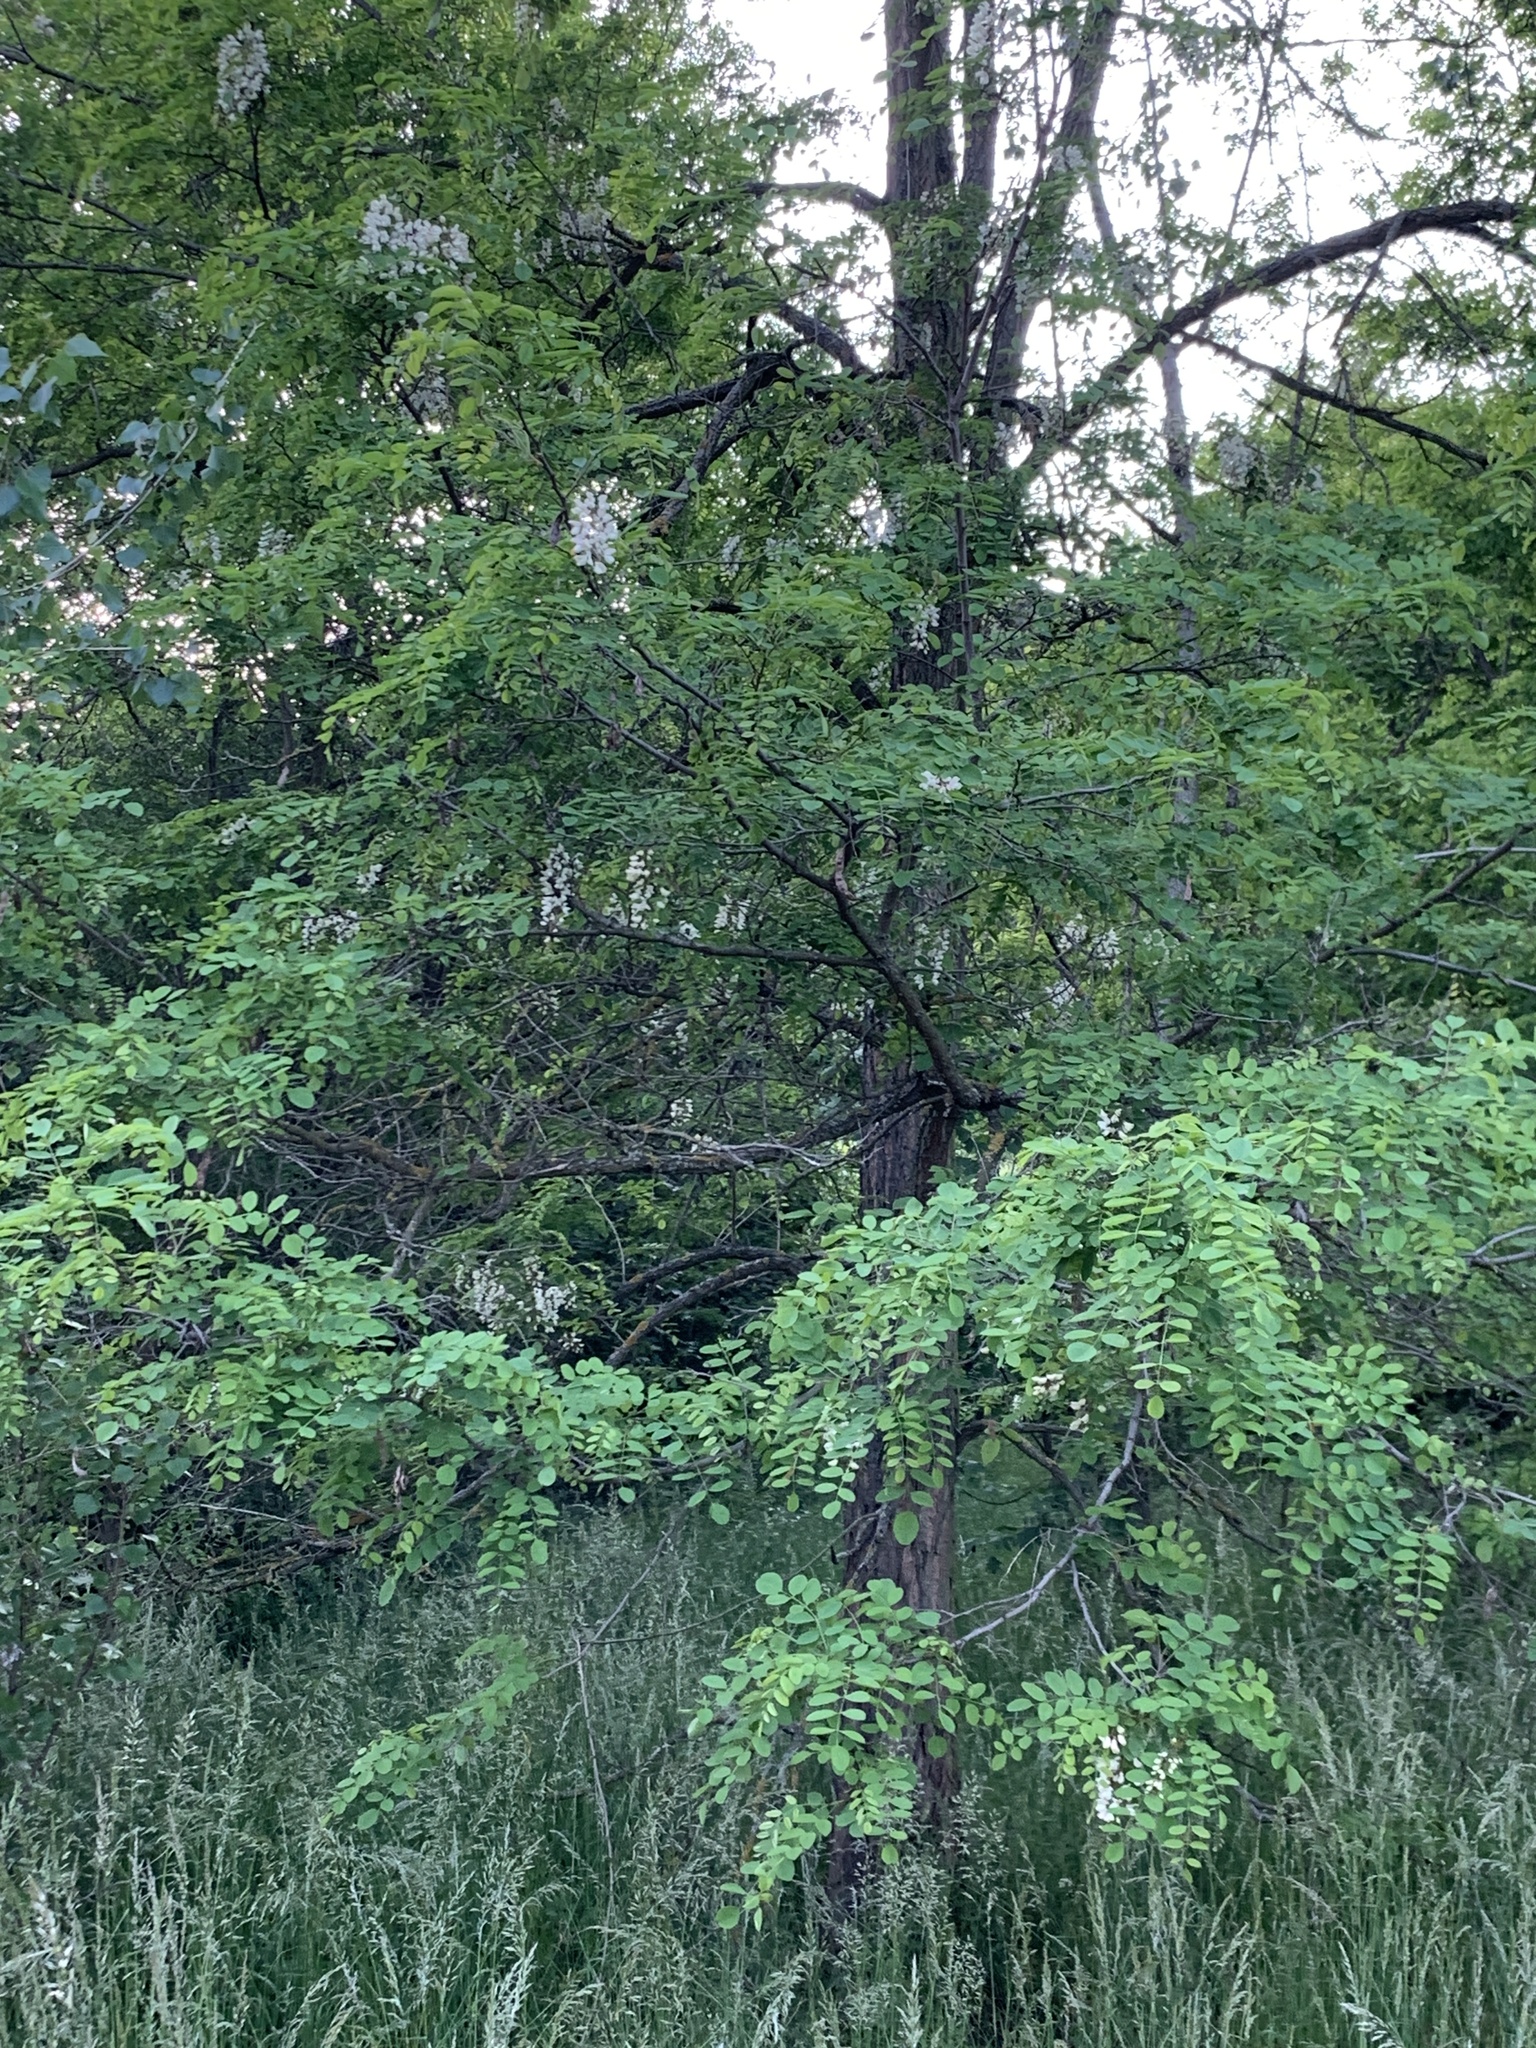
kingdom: Plantae
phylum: Tracheophyta
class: Magnoliopsida
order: Fabales
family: Fabaceae
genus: Robinia
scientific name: Robinia pseudoacacia
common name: Black locust
